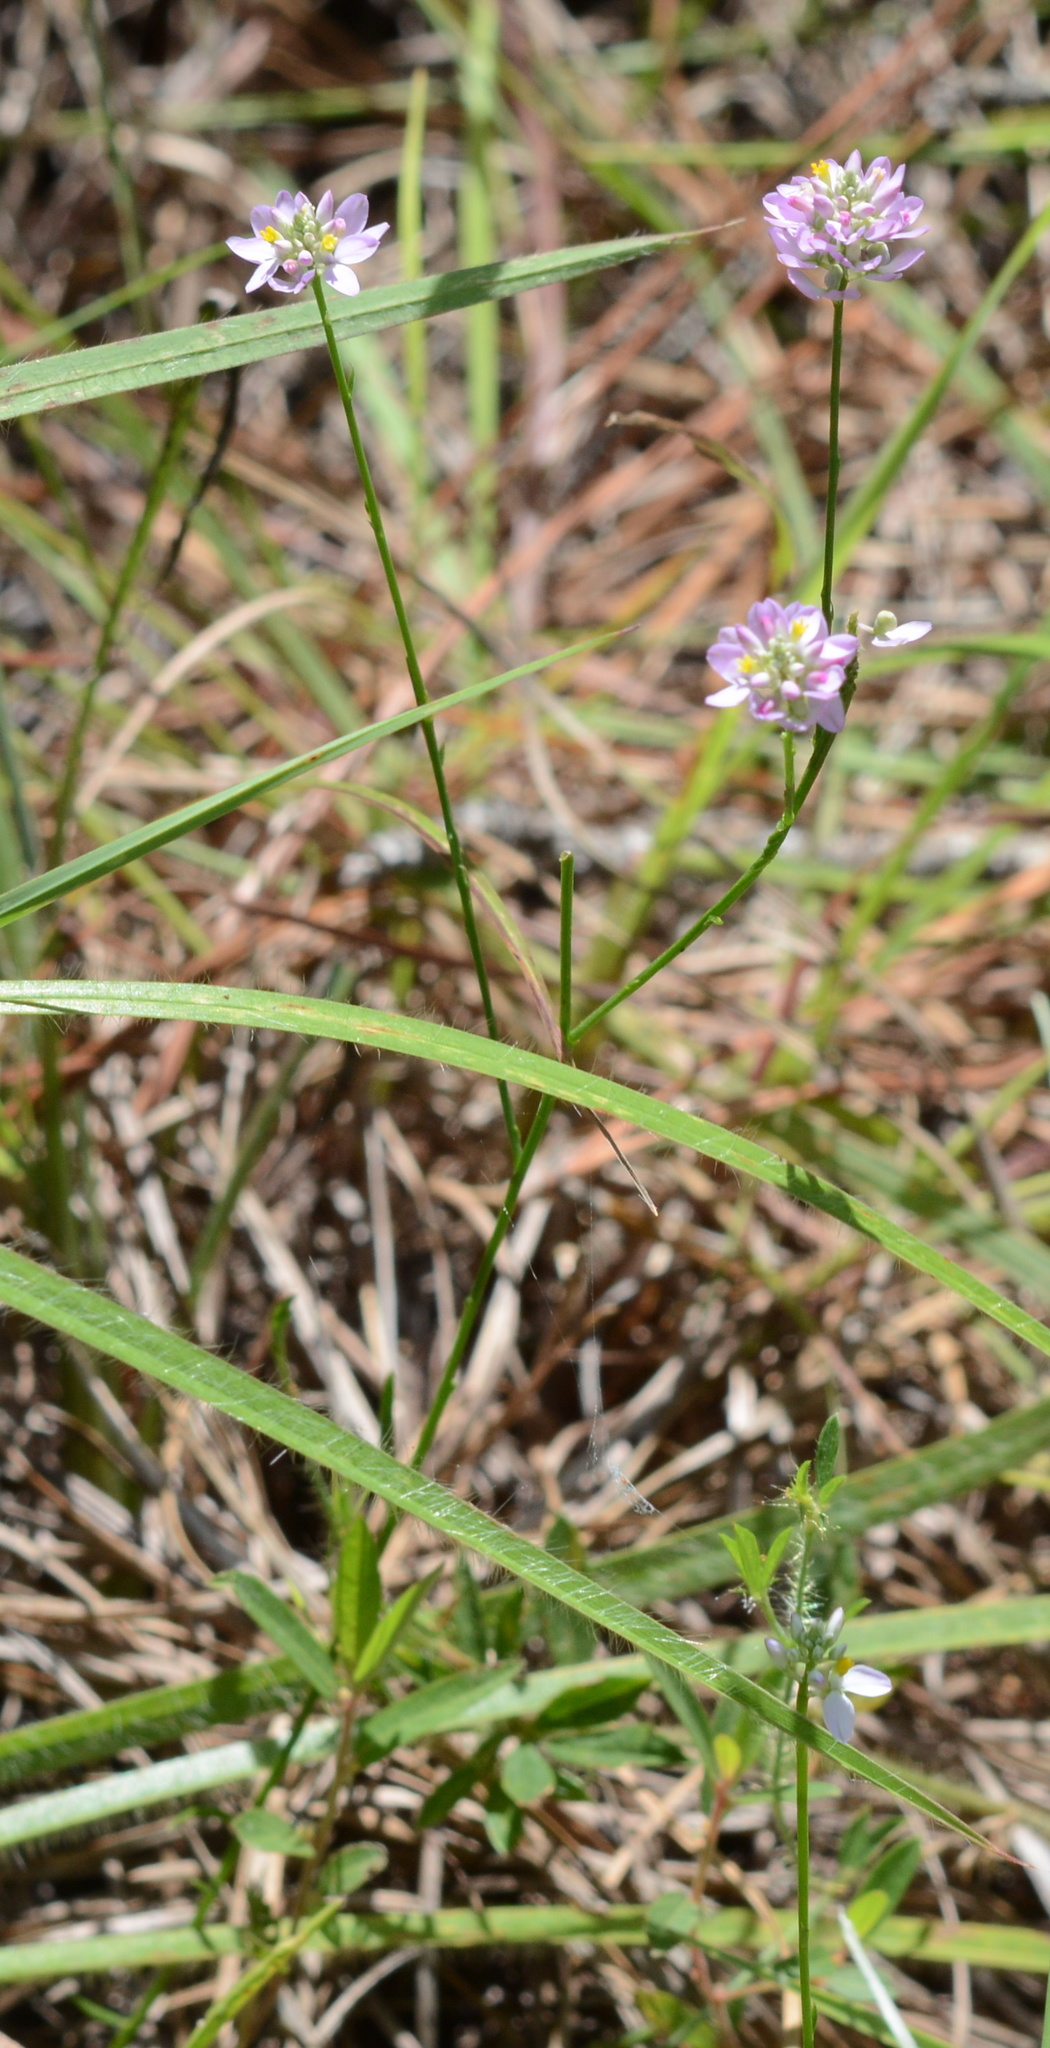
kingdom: Plantae
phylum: Tracheophyta
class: Magnoliopsida
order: Fabales
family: Polygalaceae
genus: Polygala
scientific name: Polygala mariana
